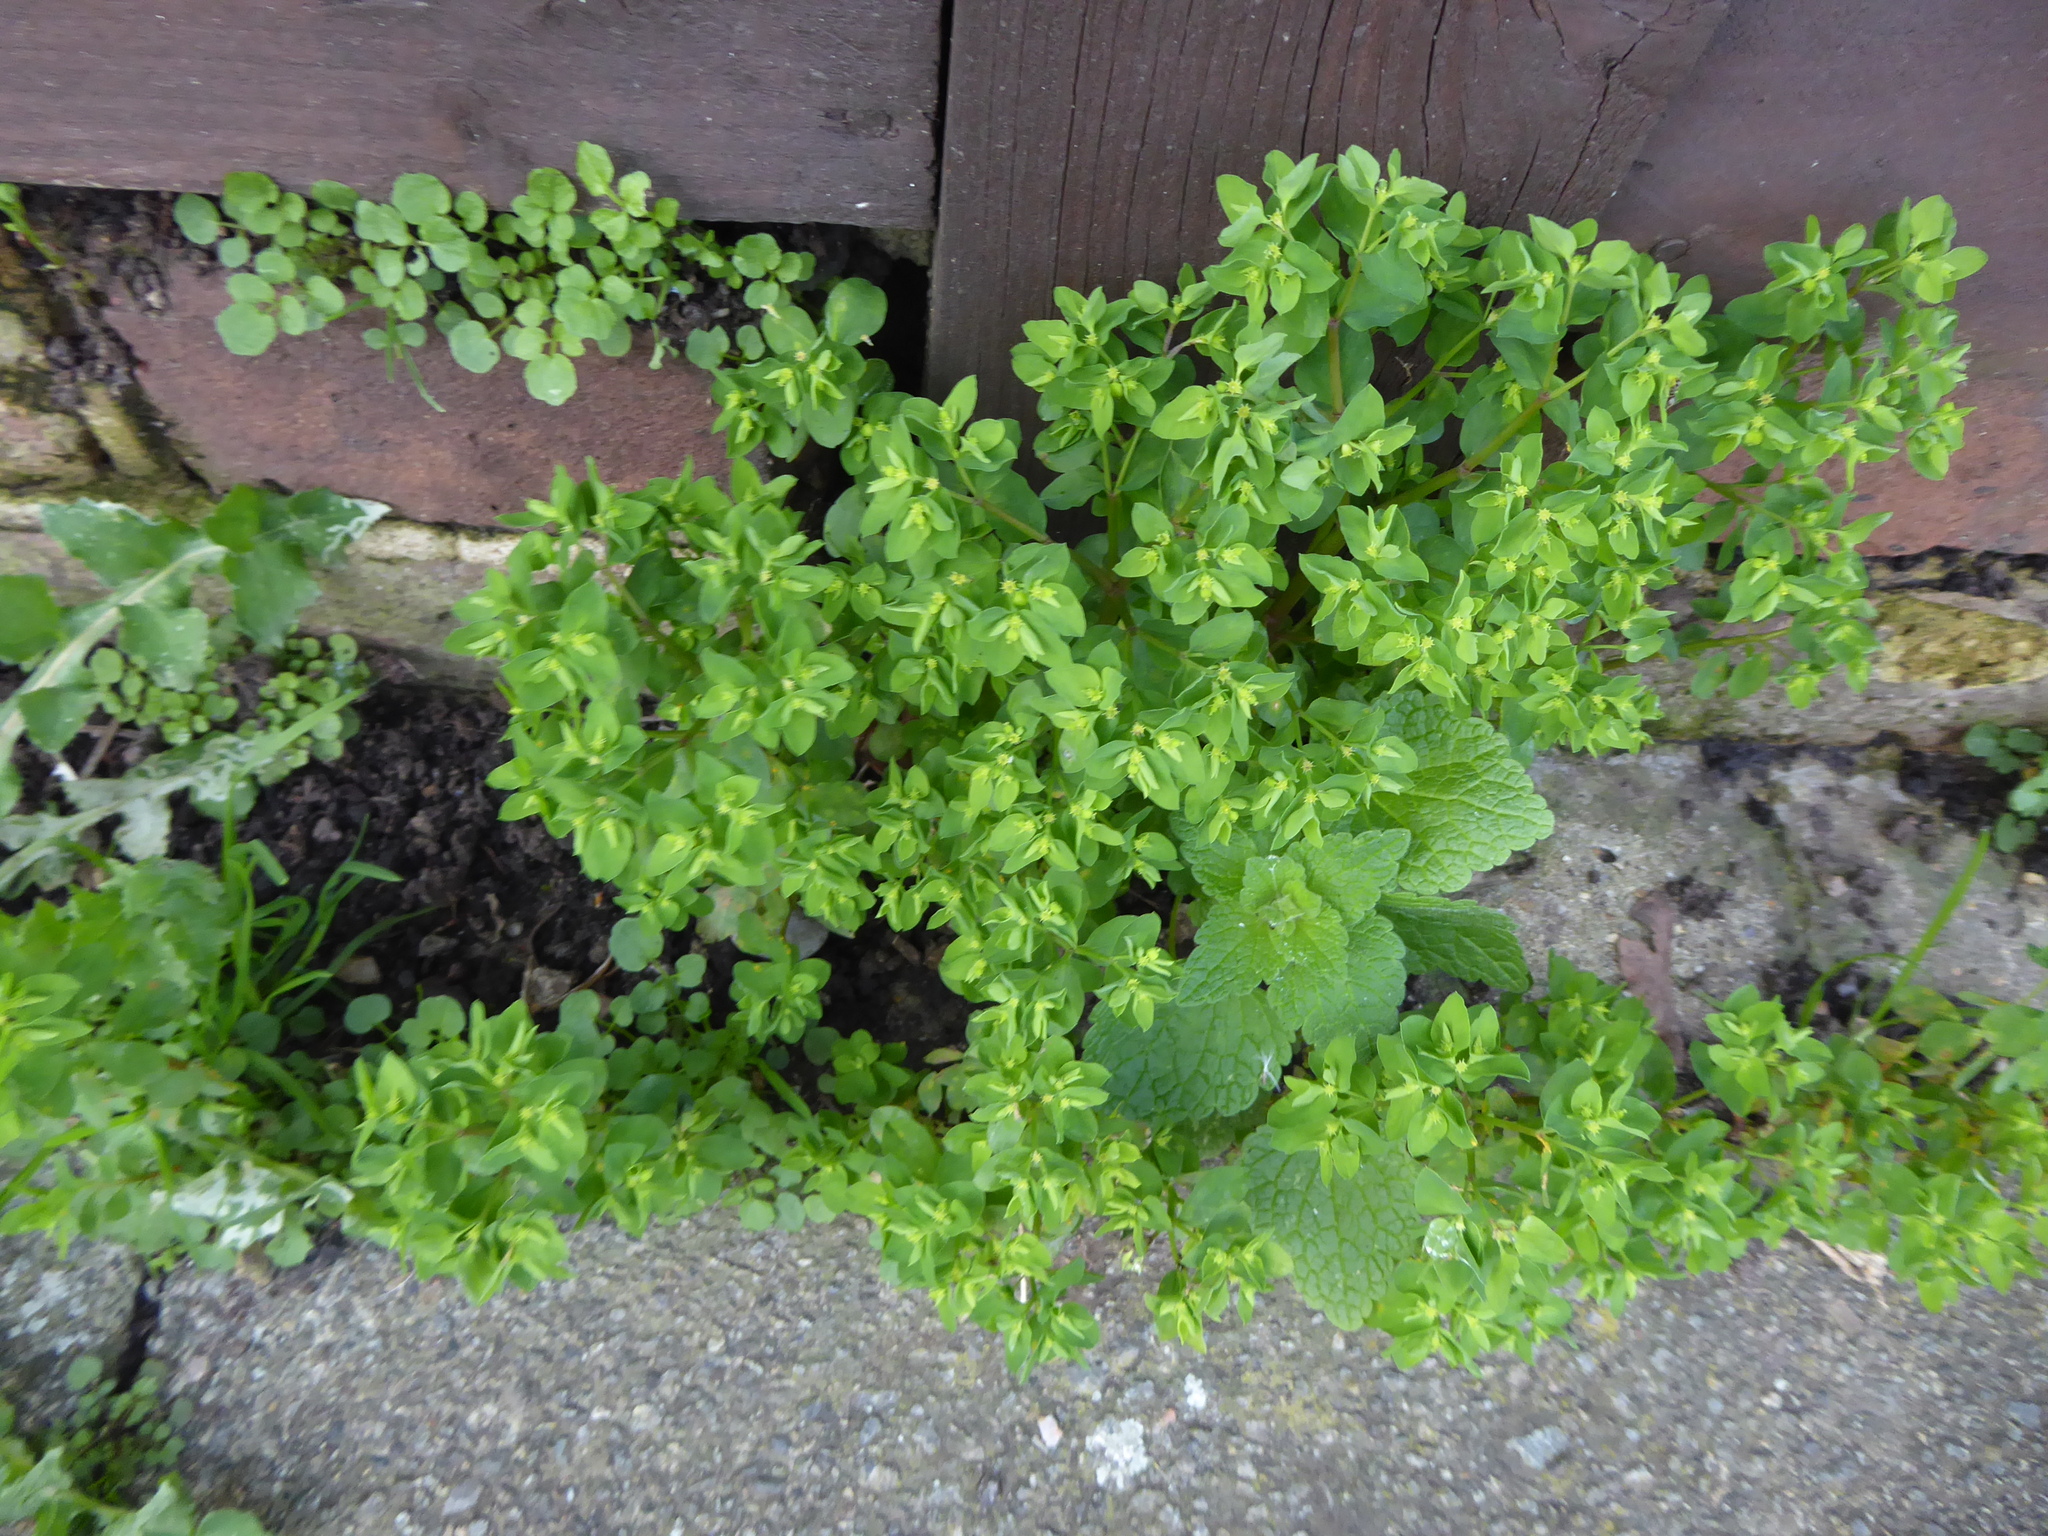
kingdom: Plantae
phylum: Tracheophyta
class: Magnoliopsida
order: Malpighiales
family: Euphorbiaceae
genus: Euphorbia
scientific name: Euphorbia peplus
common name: Petty spurge
